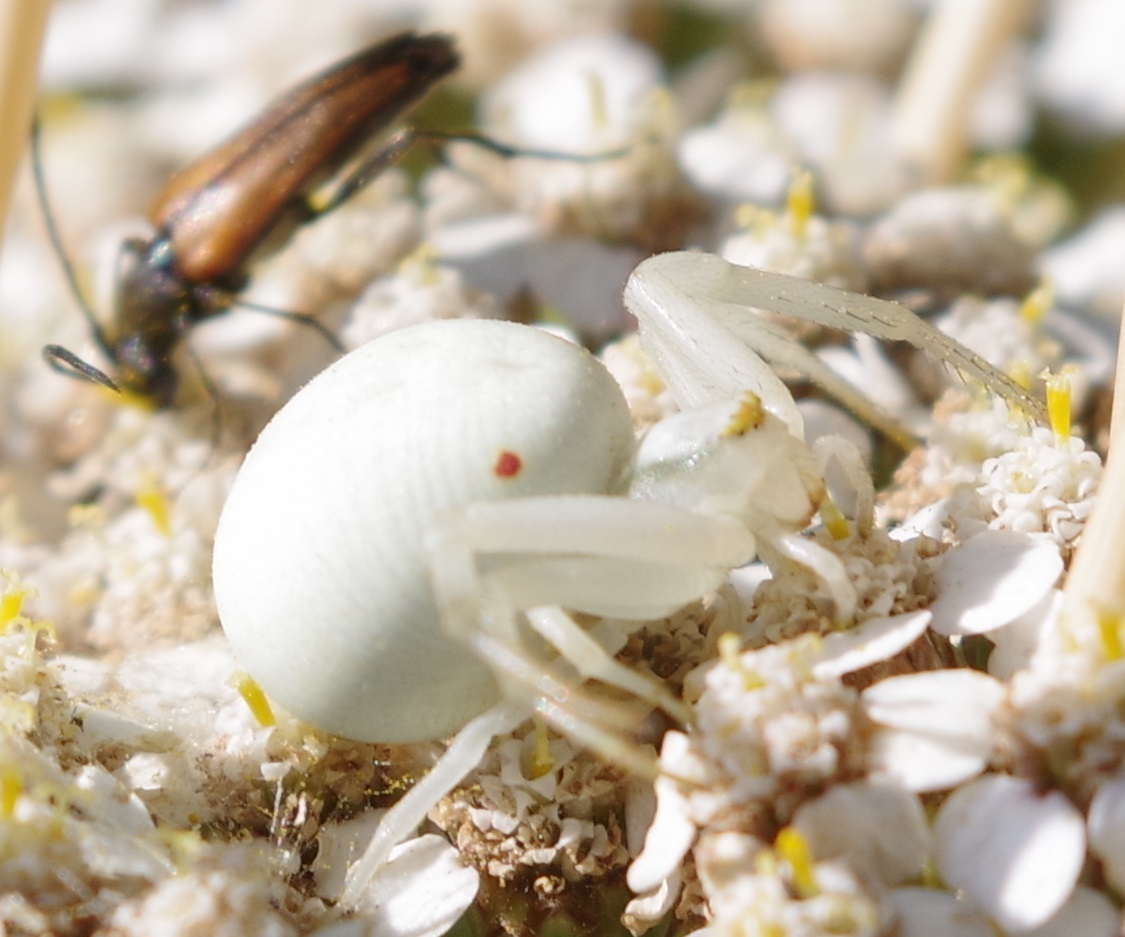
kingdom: Animalia
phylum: Arthropoda
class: Arachnida
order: Araneae
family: Thomisidae
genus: Misumena
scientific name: Misumena vatia
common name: Goldenrod crab spider
